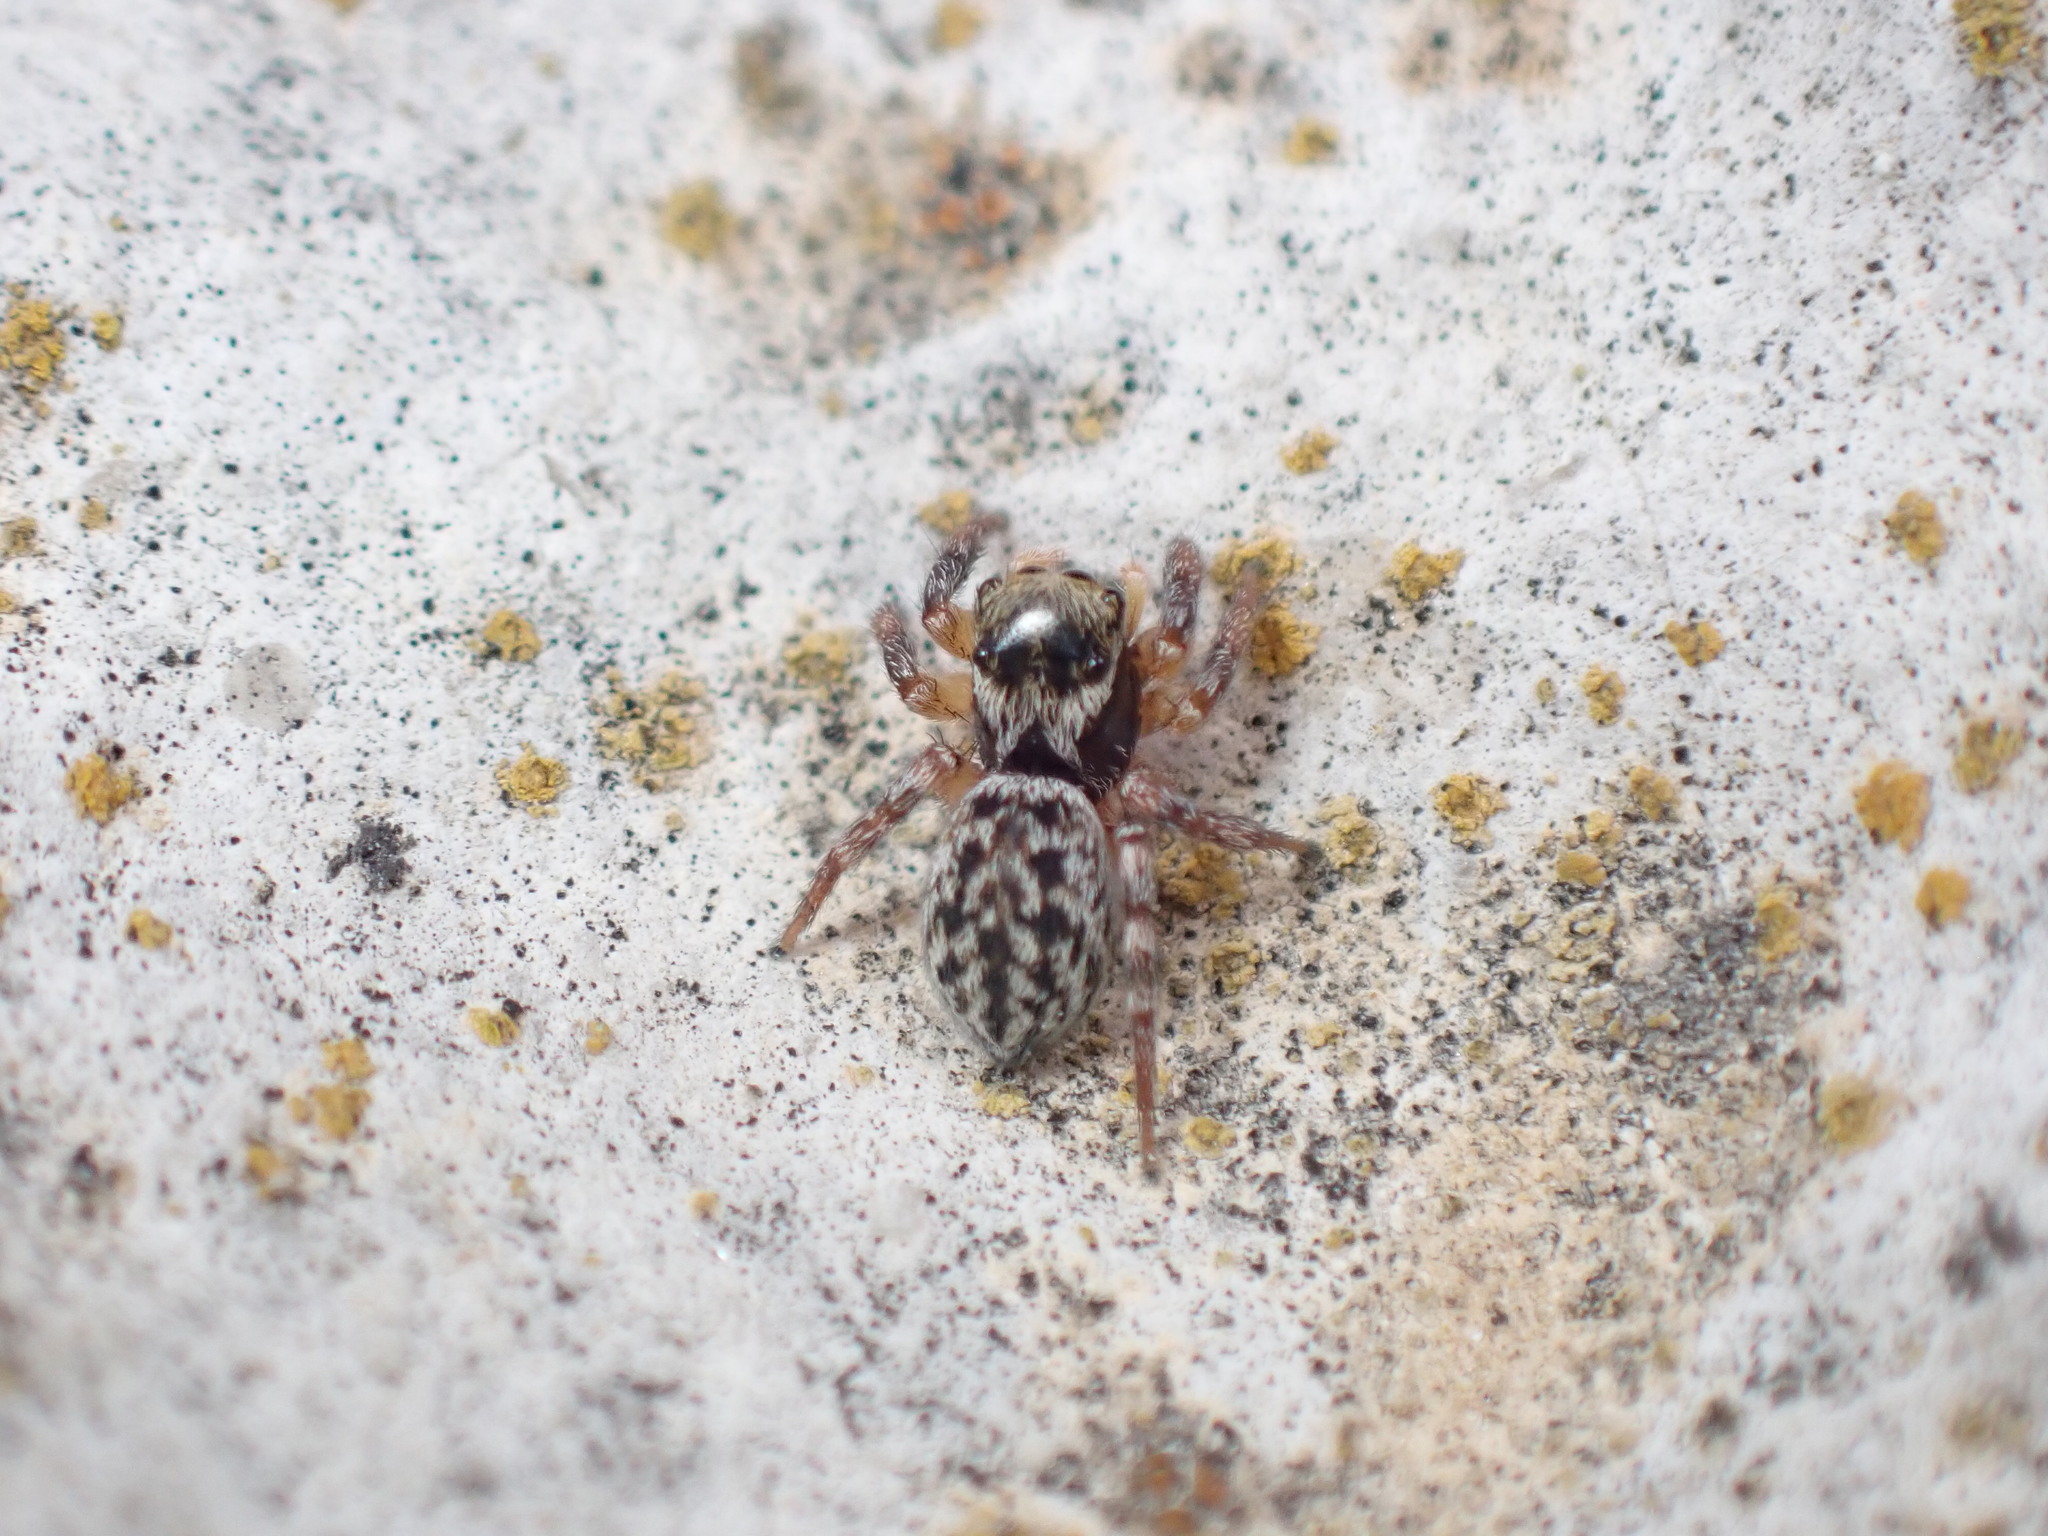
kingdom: Animalia
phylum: Arthropoda
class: Arachnida
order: Araneae
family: Salticidae
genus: Euophrys
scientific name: Euophrys sulphurea
